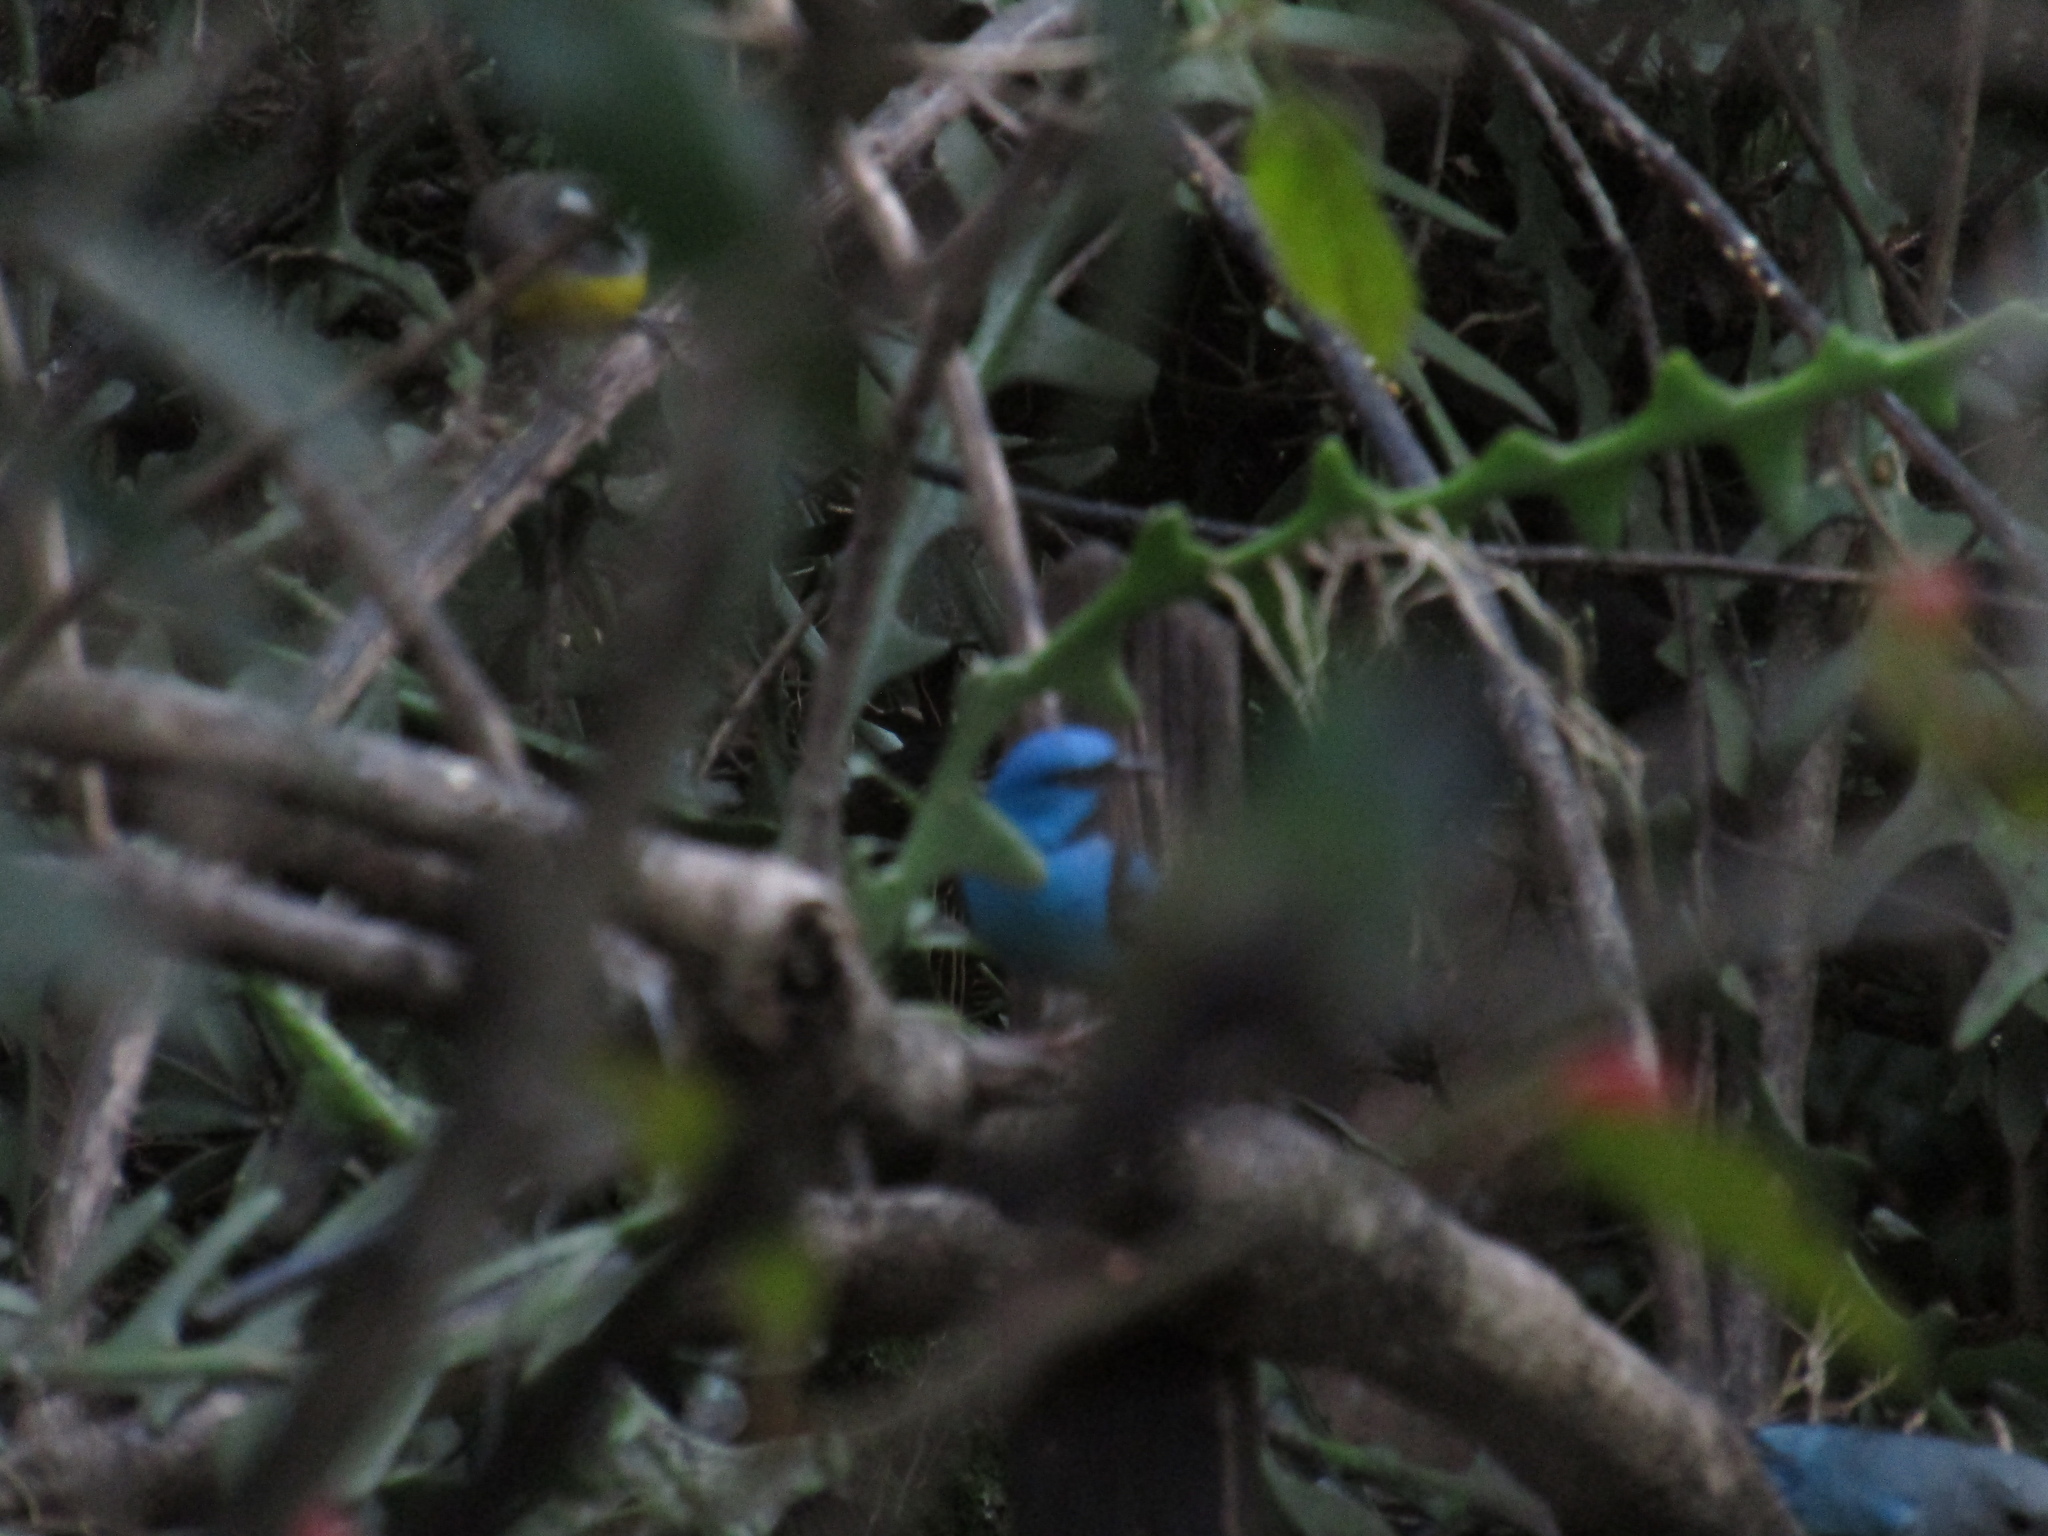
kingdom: Animalia
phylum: Chordata
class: Aves
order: Passeriformes
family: Thraupidae
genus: Dacnis
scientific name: Dacnis cayana
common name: Blue dacnis
